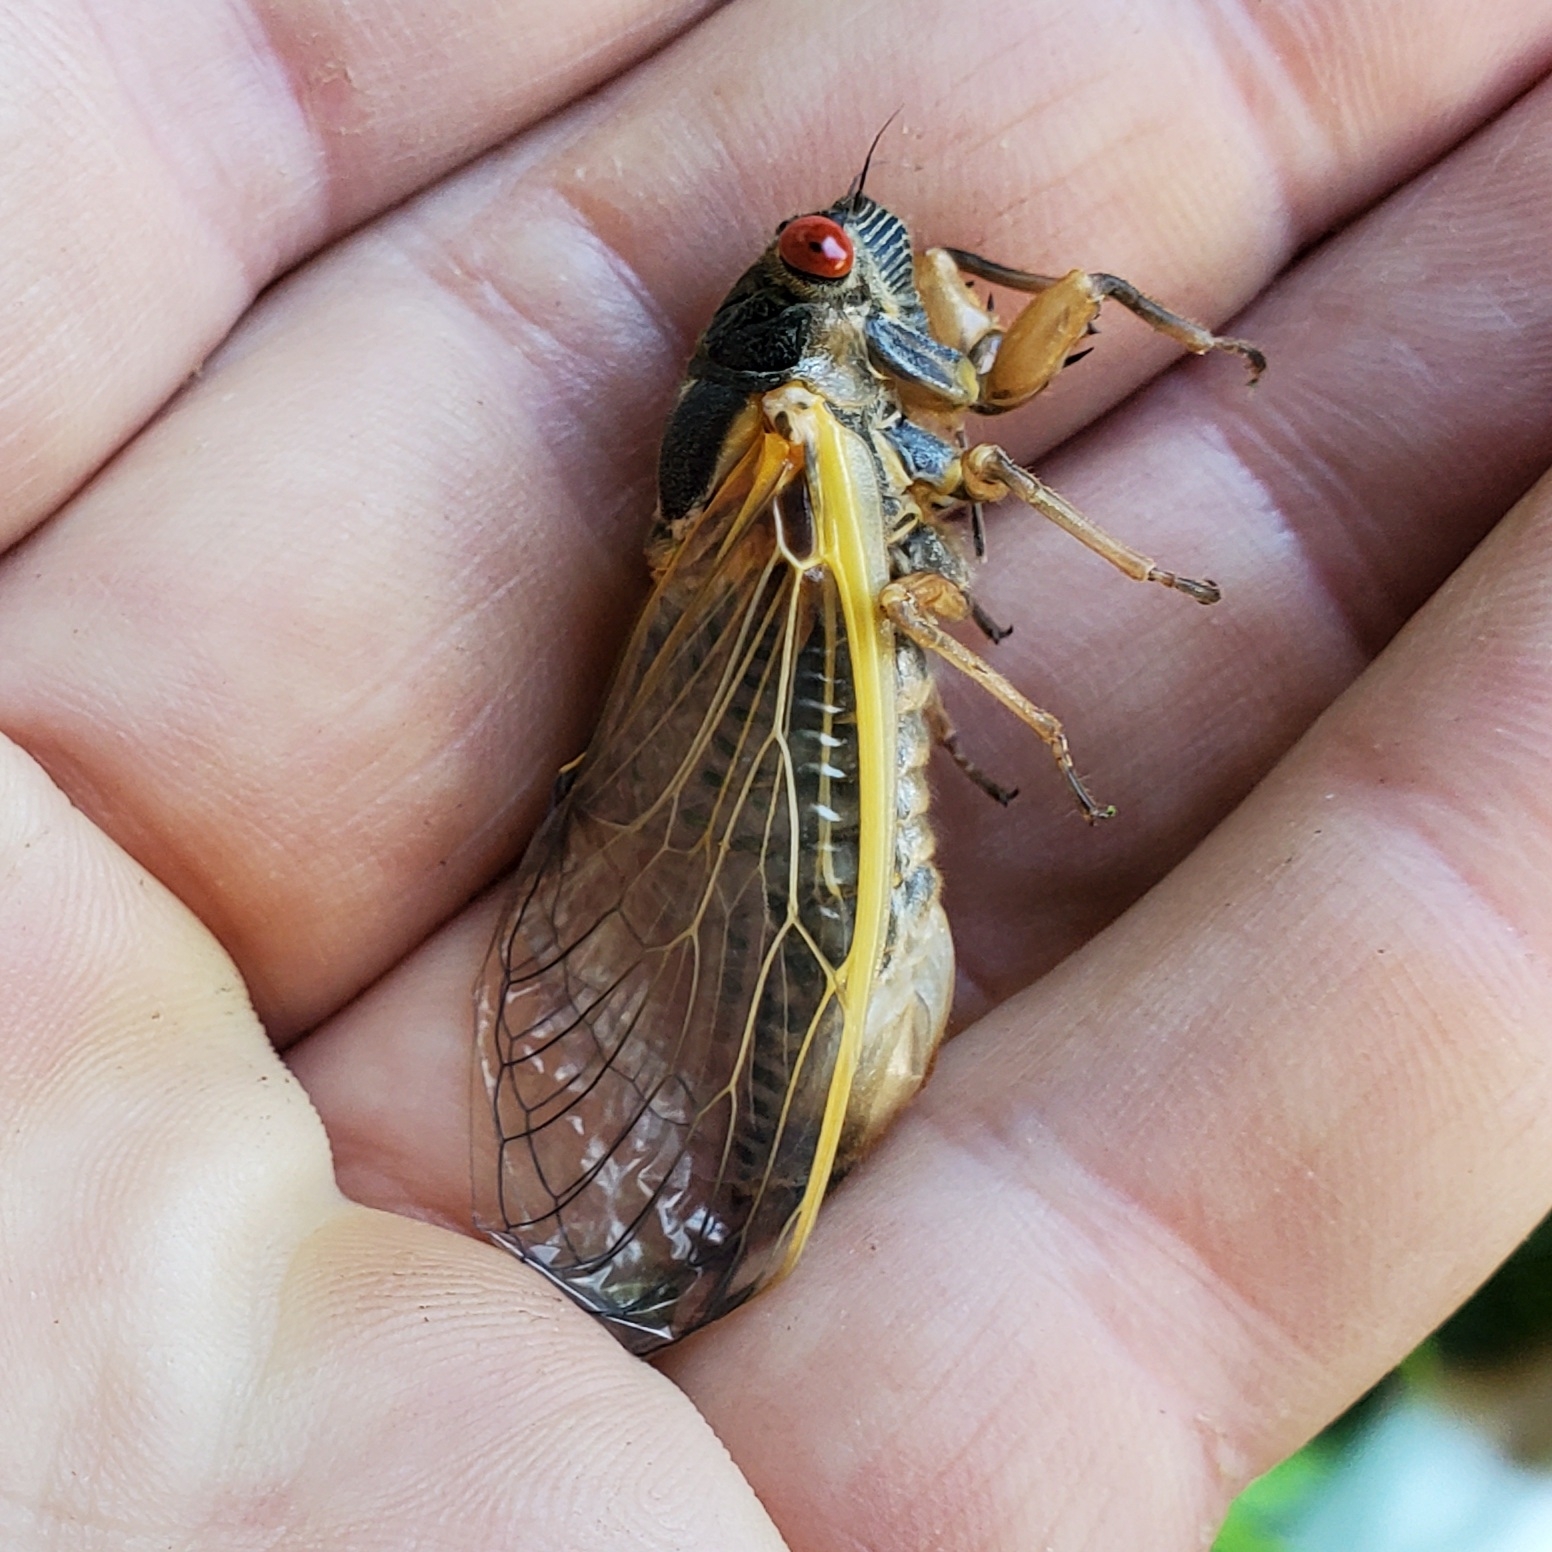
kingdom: Animalia
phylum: Arthropoda
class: Insecta
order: Hemiptera
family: Cicadidae
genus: Magicicada
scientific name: Magicicada septendecim
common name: Periodical cicada
